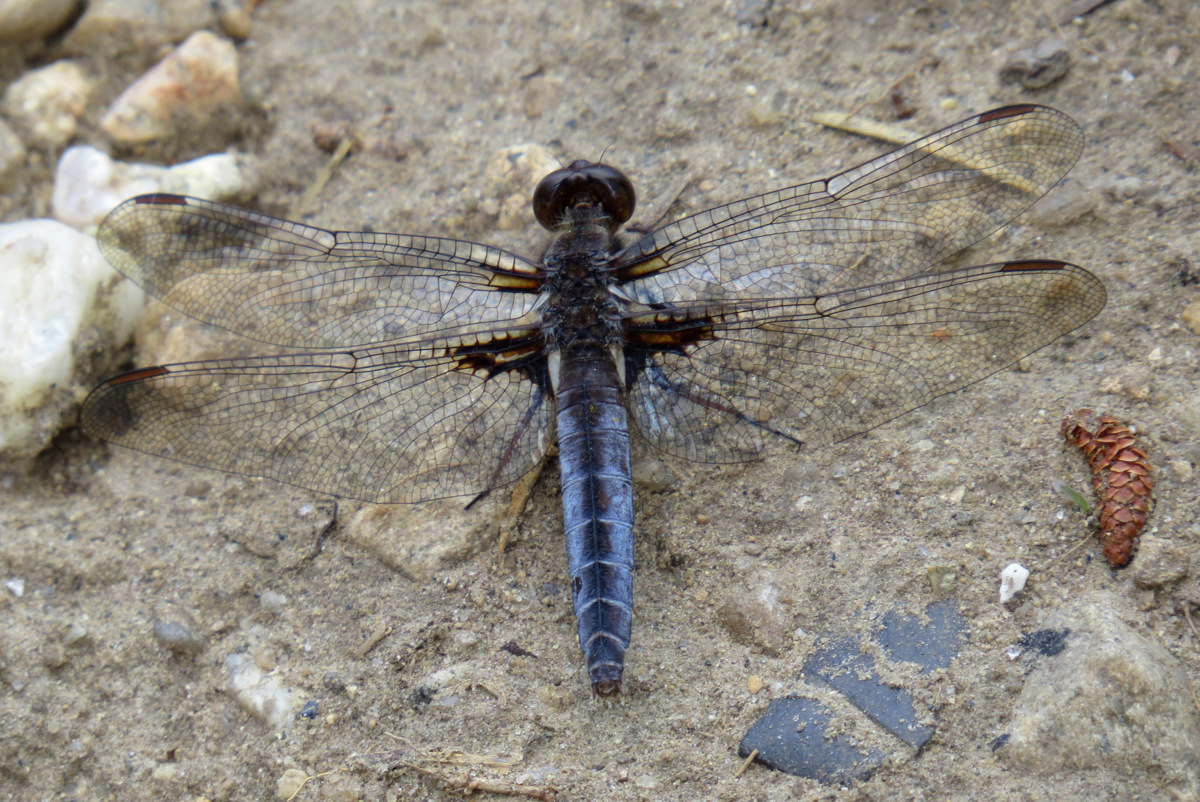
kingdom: Animalia
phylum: Arthropoda
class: Insecta
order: Odonata
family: Libellulidae
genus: Ladona
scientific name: Ladona deplanata
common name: Blue corporal
